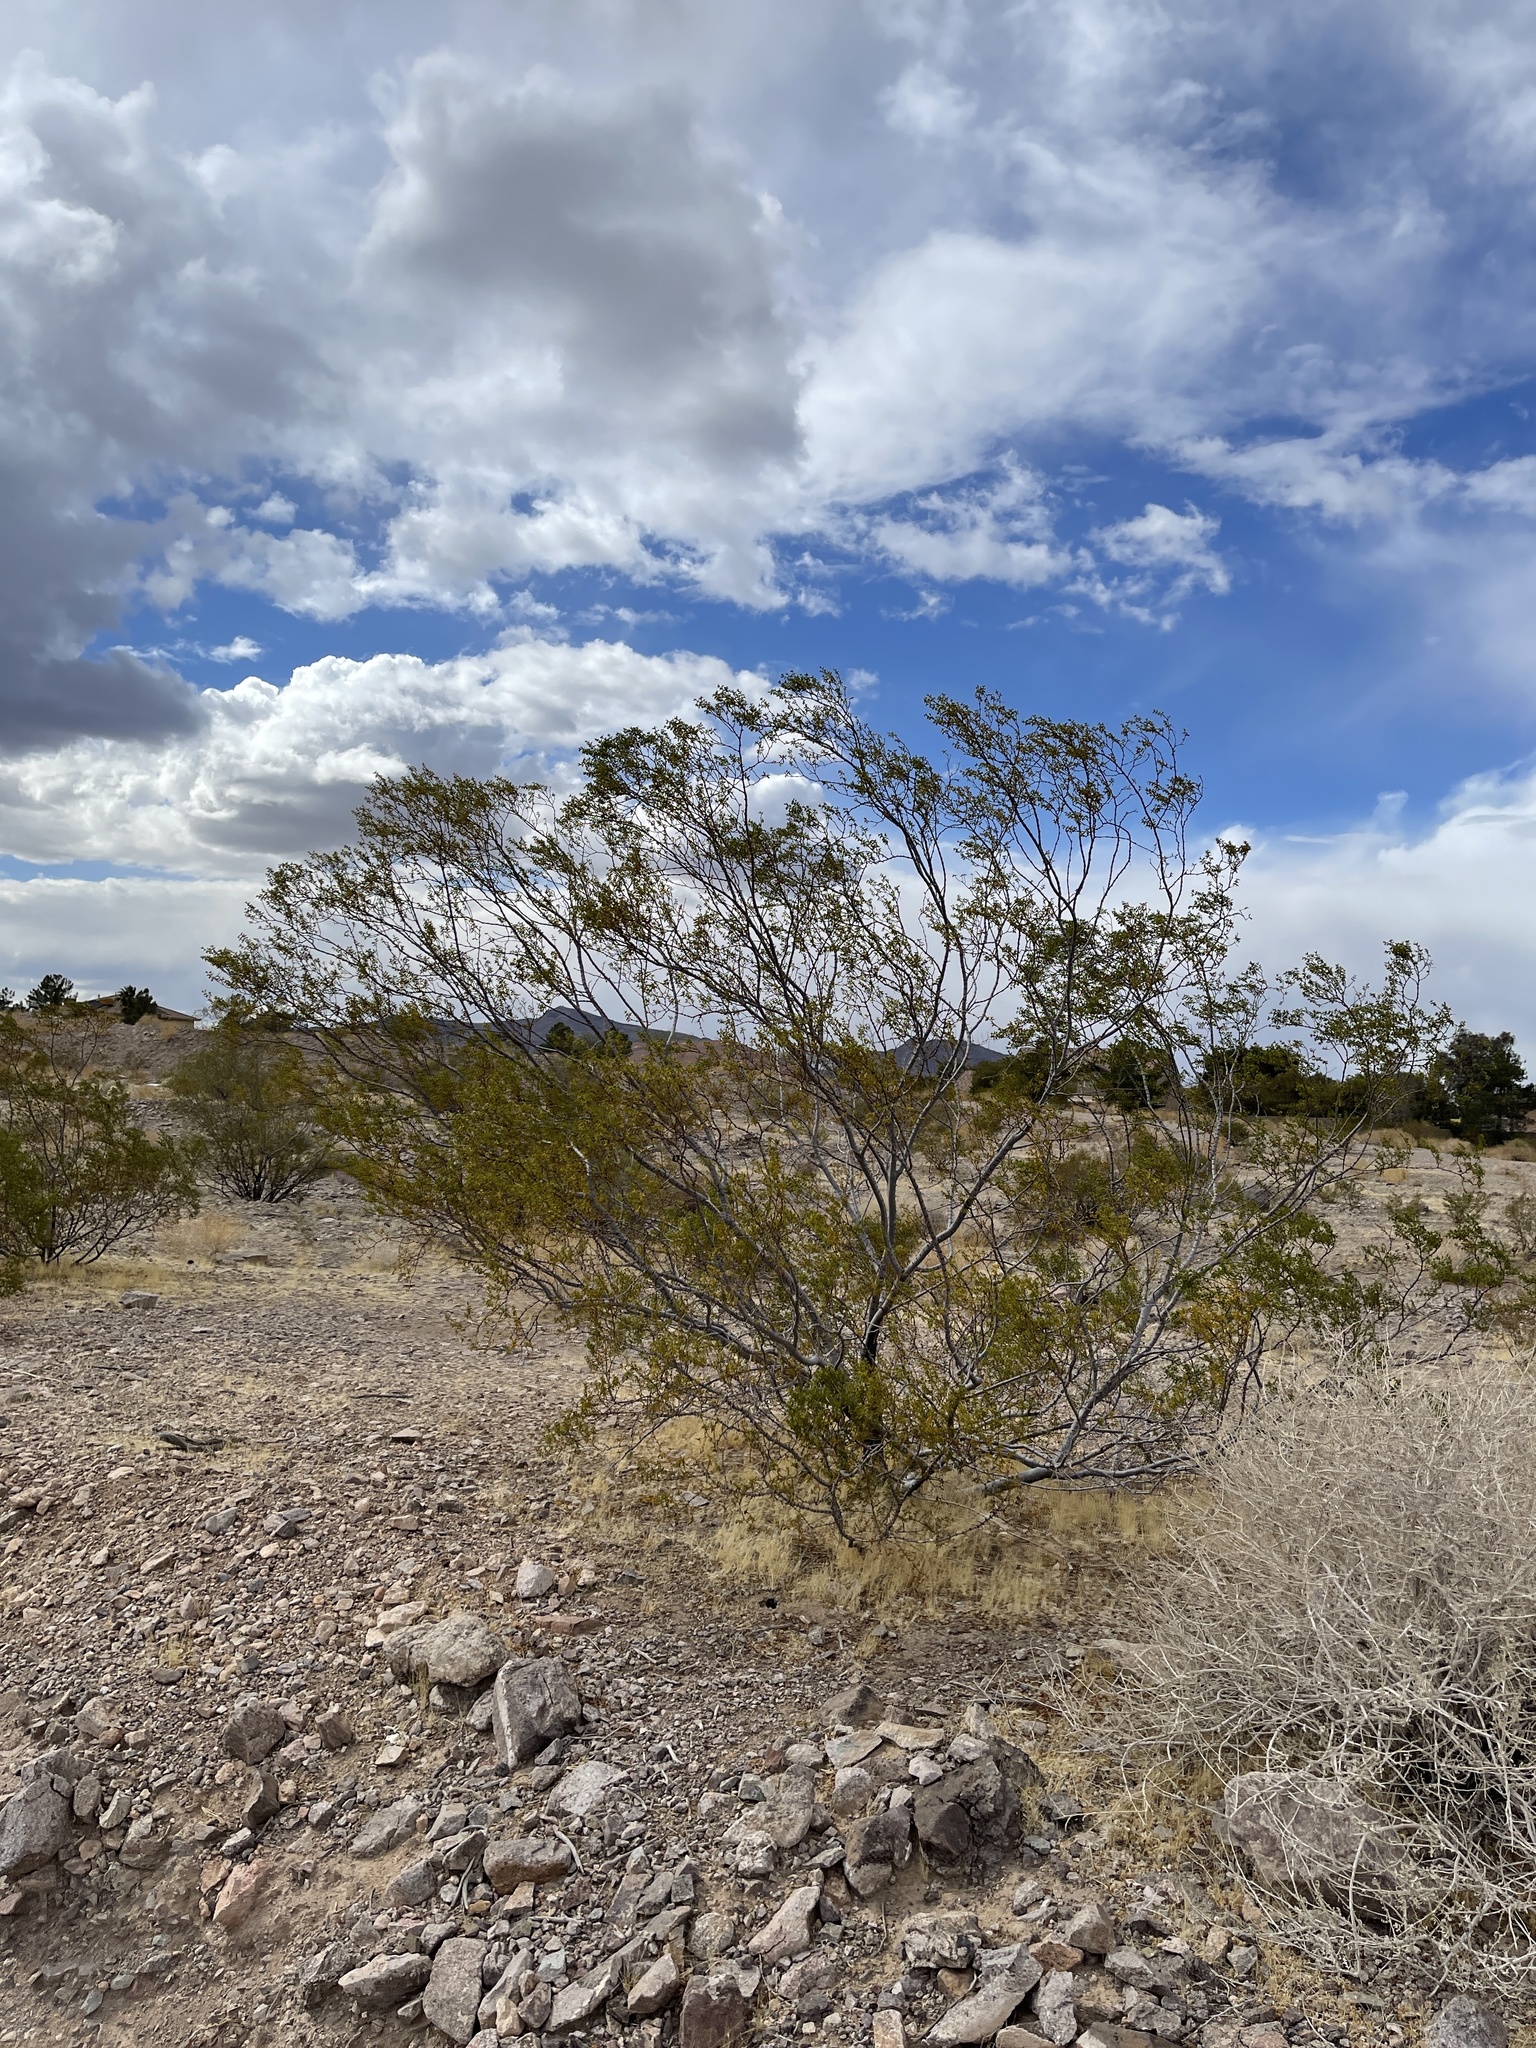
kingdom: Plantae
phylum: Tracheophyta
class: Magnoliopsida
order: Zygophyllales
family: Zygophyllaceae
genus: Larrea
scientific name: Larrea tridentata
